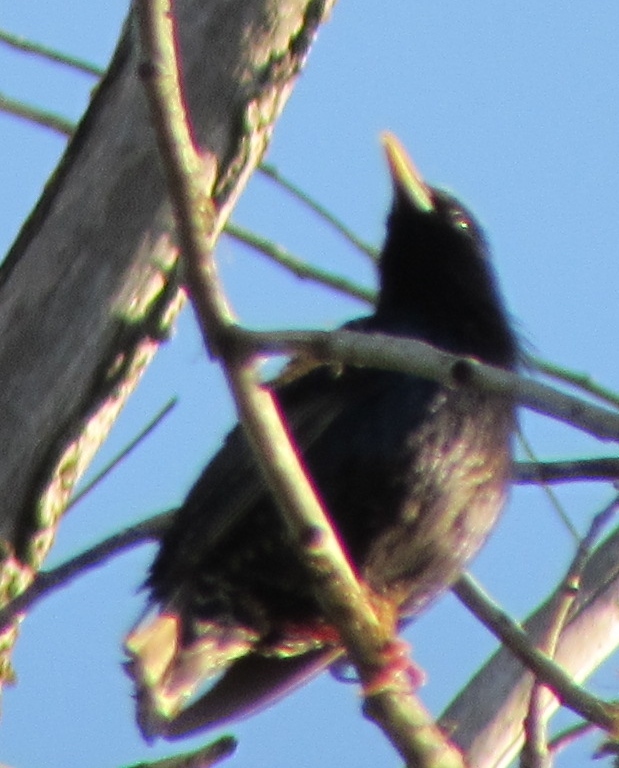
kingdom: Animalia
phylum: Chordata
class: Aves
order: Passeriformes
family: Sturnidae
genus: Sturnus
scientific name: Sturnus vulgaris
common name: Common starling
